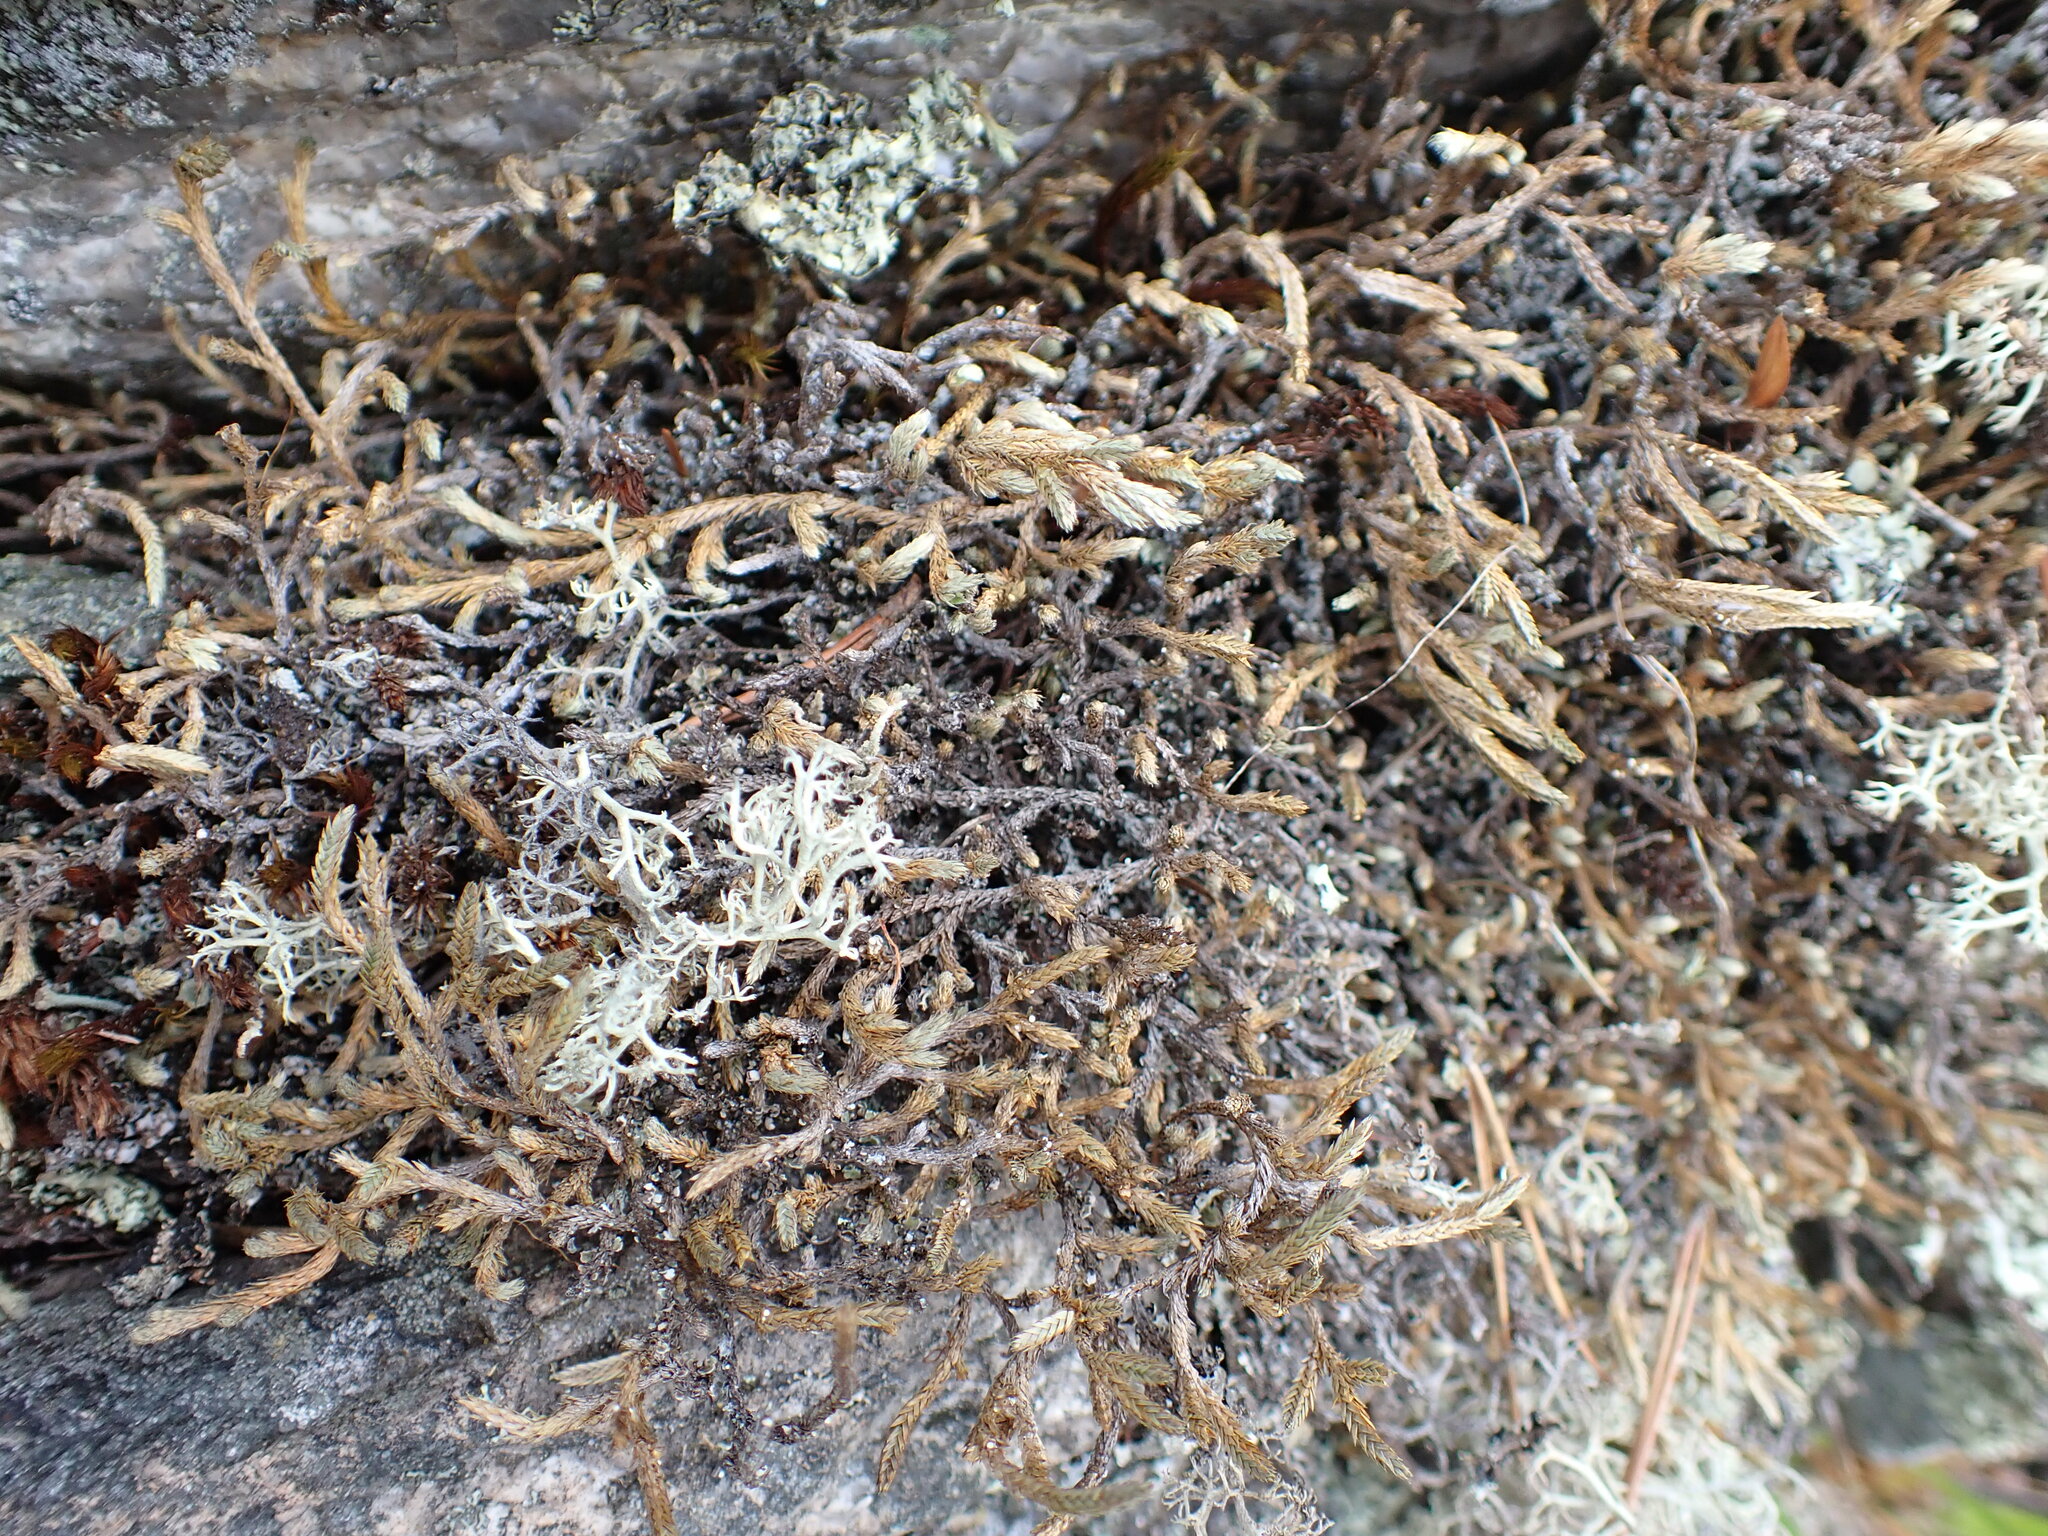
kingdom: Plantae
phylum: Tracheophyta
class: Lycopodiopsida
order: Selaginellales
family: Selaginellaceae
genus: Selaginella
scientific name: Selaginella wallacei
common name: Wallace's selaginella
